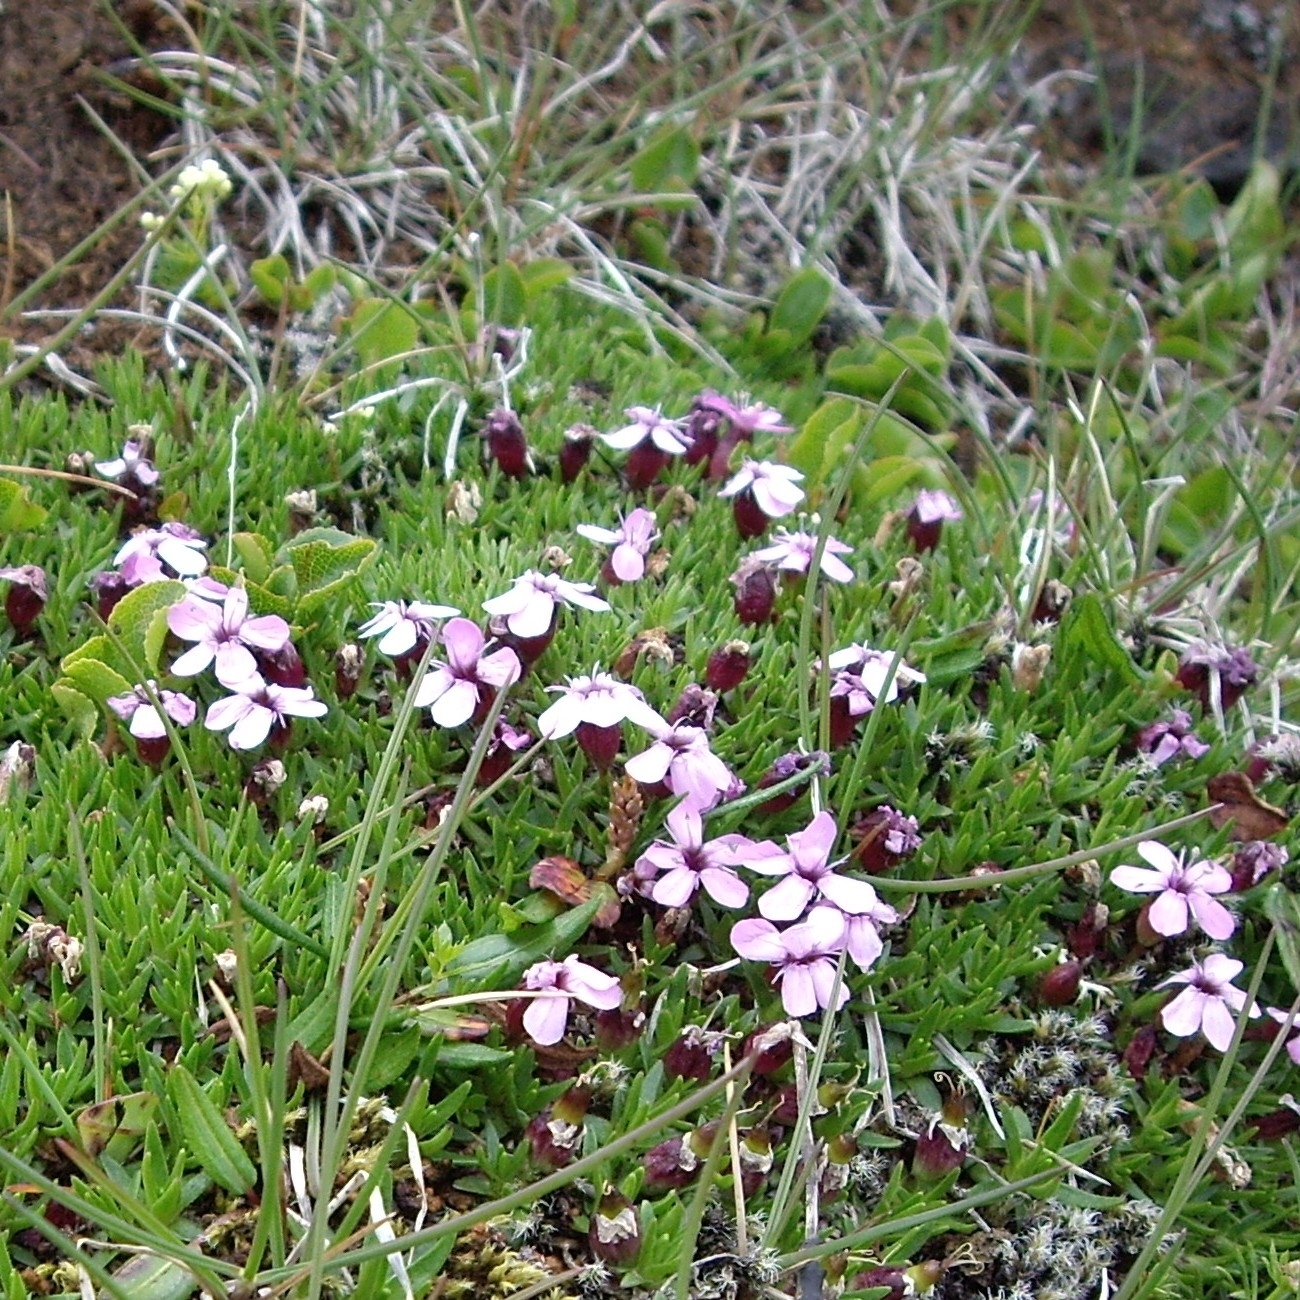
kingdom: Plantae
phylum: Tracheophyta
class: Magnoliopsida
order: Caryophyllales
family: Caryophyllaceae
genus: Silene
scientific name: Silene acaulis
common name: Moss campion
